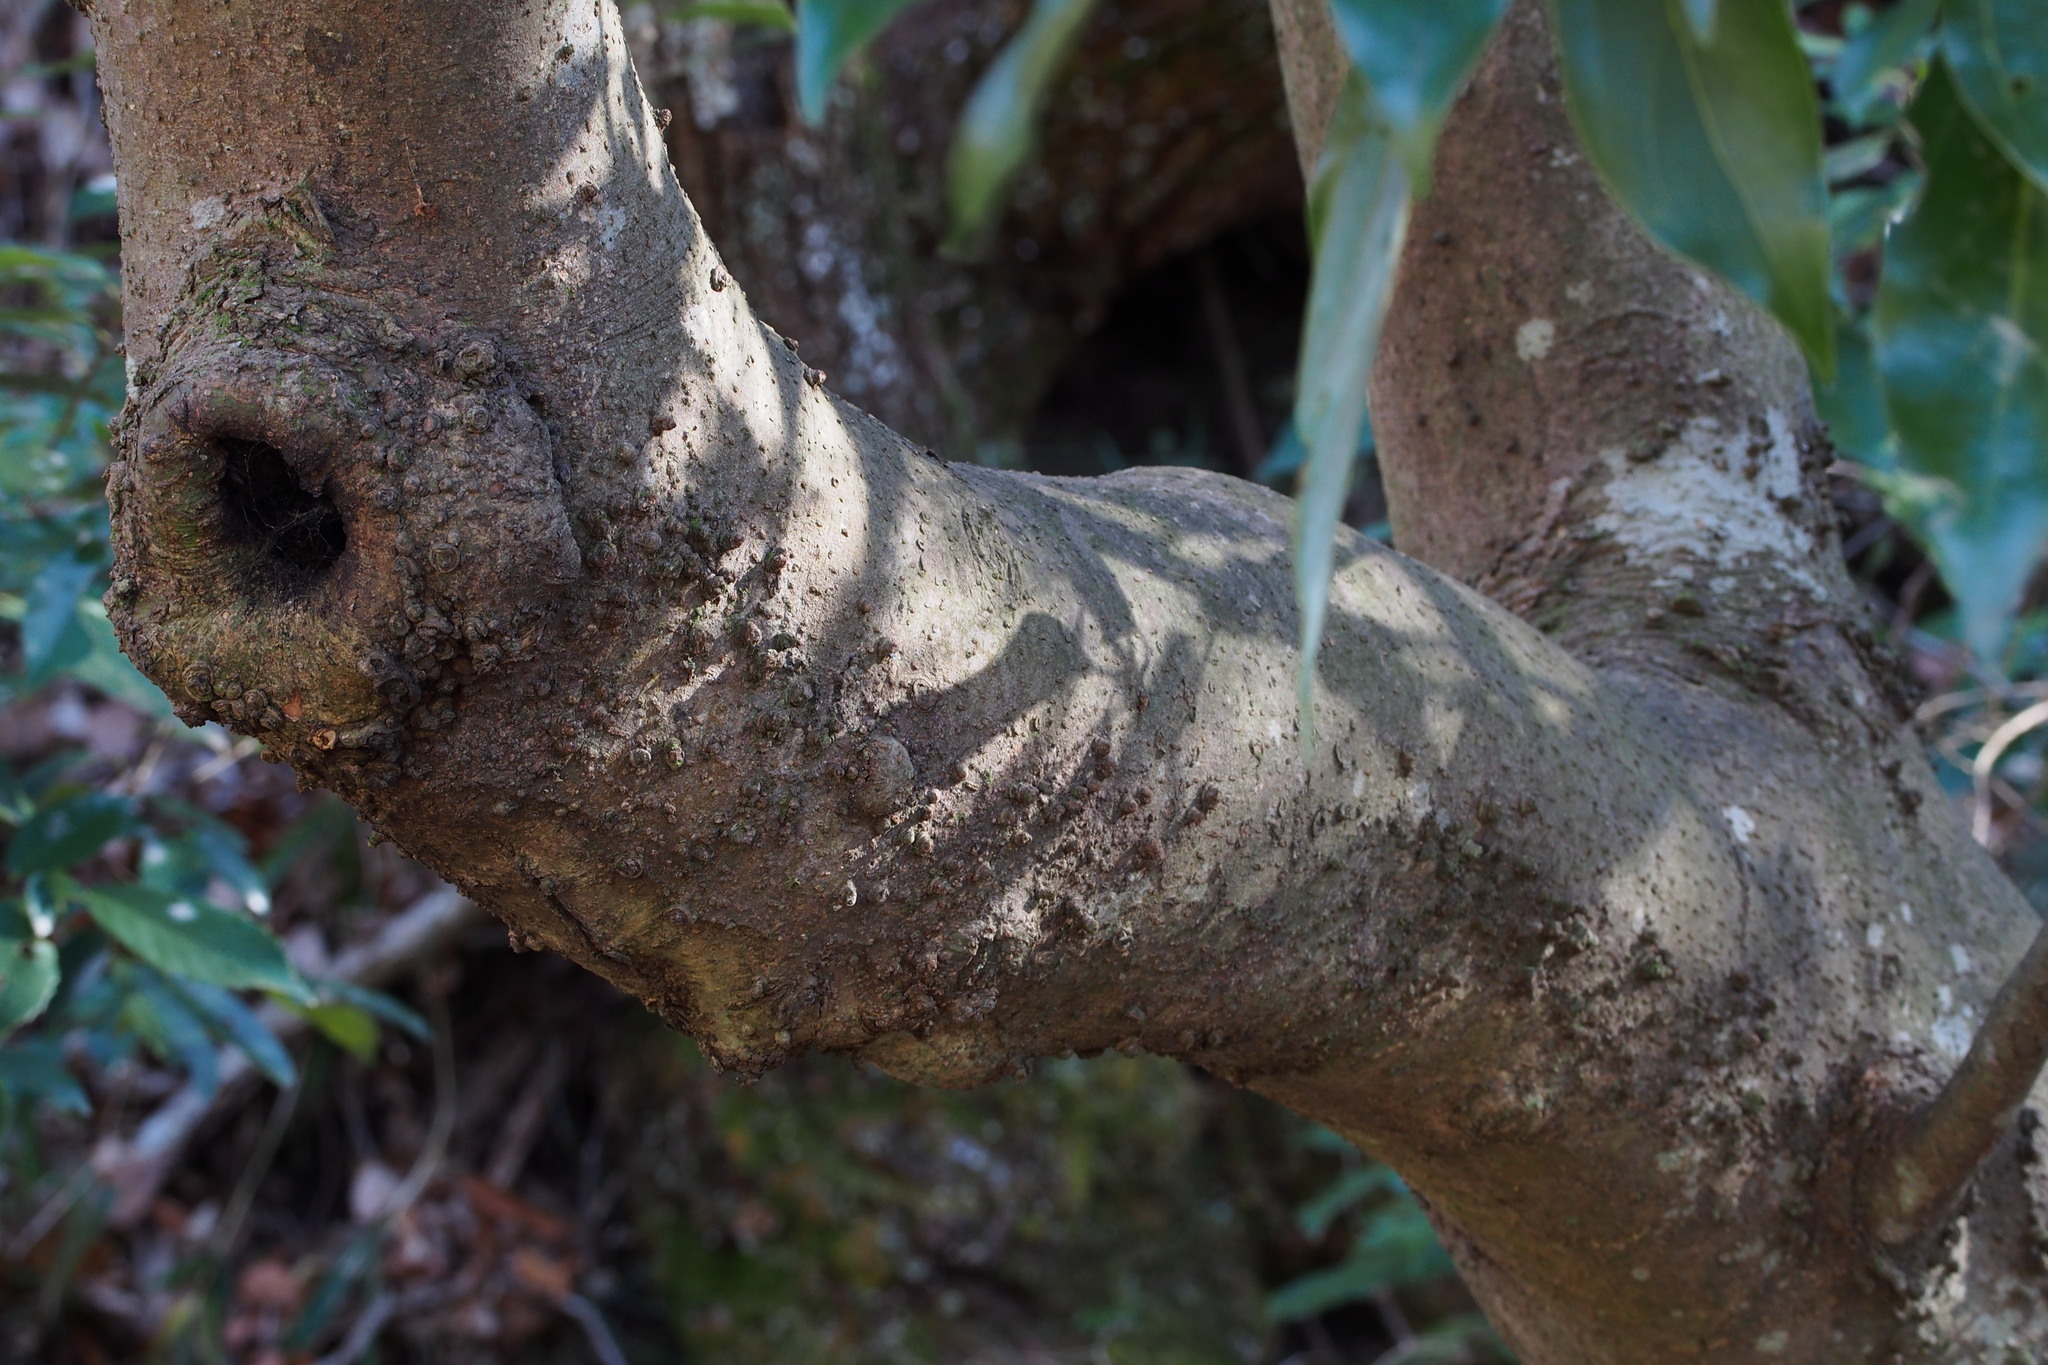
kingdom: Plantae
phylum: Tracheophyta
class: Magnoliopsida
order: Laurales
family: Lauraceae
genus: Neolitsea
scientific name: Neolitsea sericea
